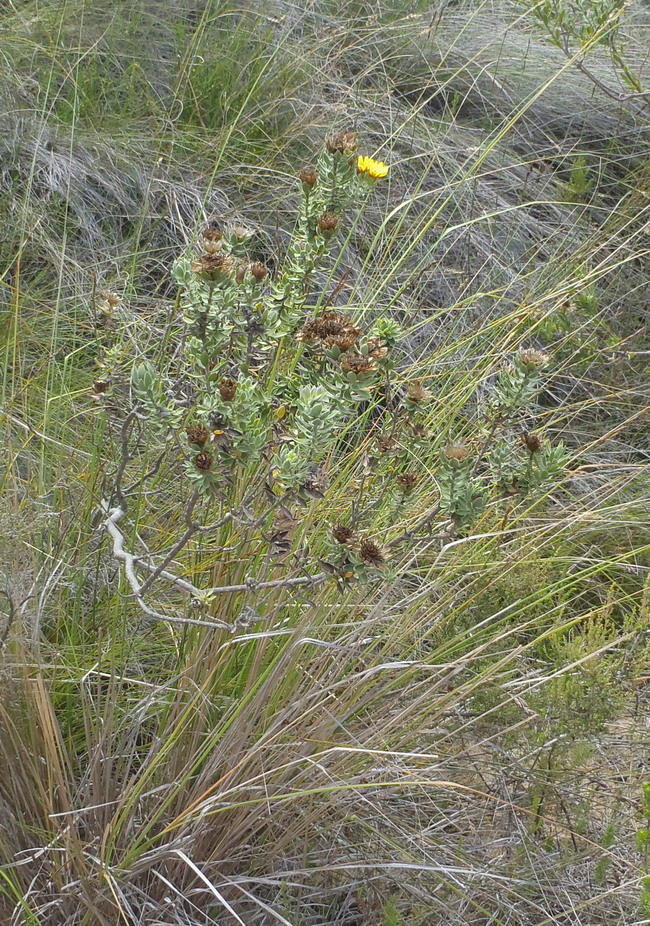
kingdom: Plantae
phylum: Tracheophyta
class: Magnoliopsida
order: Asterales
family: Asteraceae
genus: Oedera
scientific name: Oedera calycina
